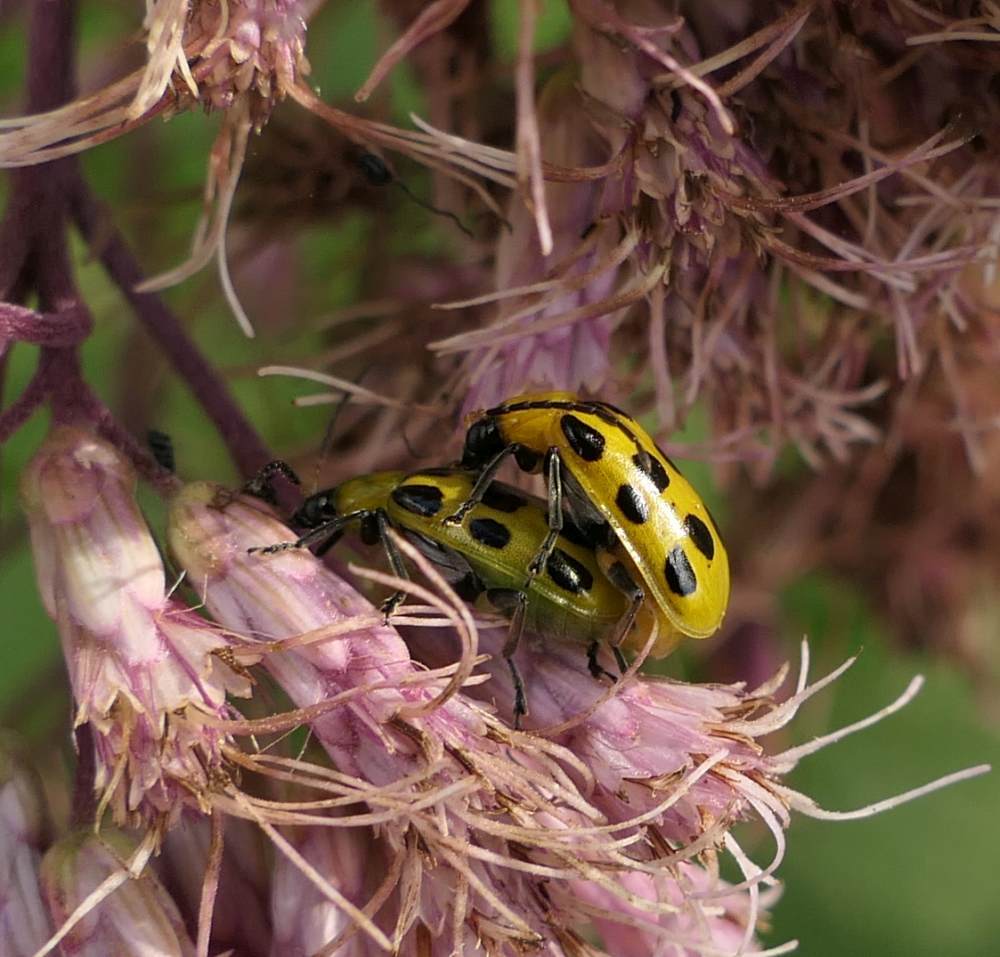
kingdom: Animalia
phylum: Arthropoda
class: Insecta
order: Coleoptera
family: Chrysomelidae
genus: Diabrotica
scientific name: Diabrotica undecimpunctata
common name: Spotted cucumber beetle
